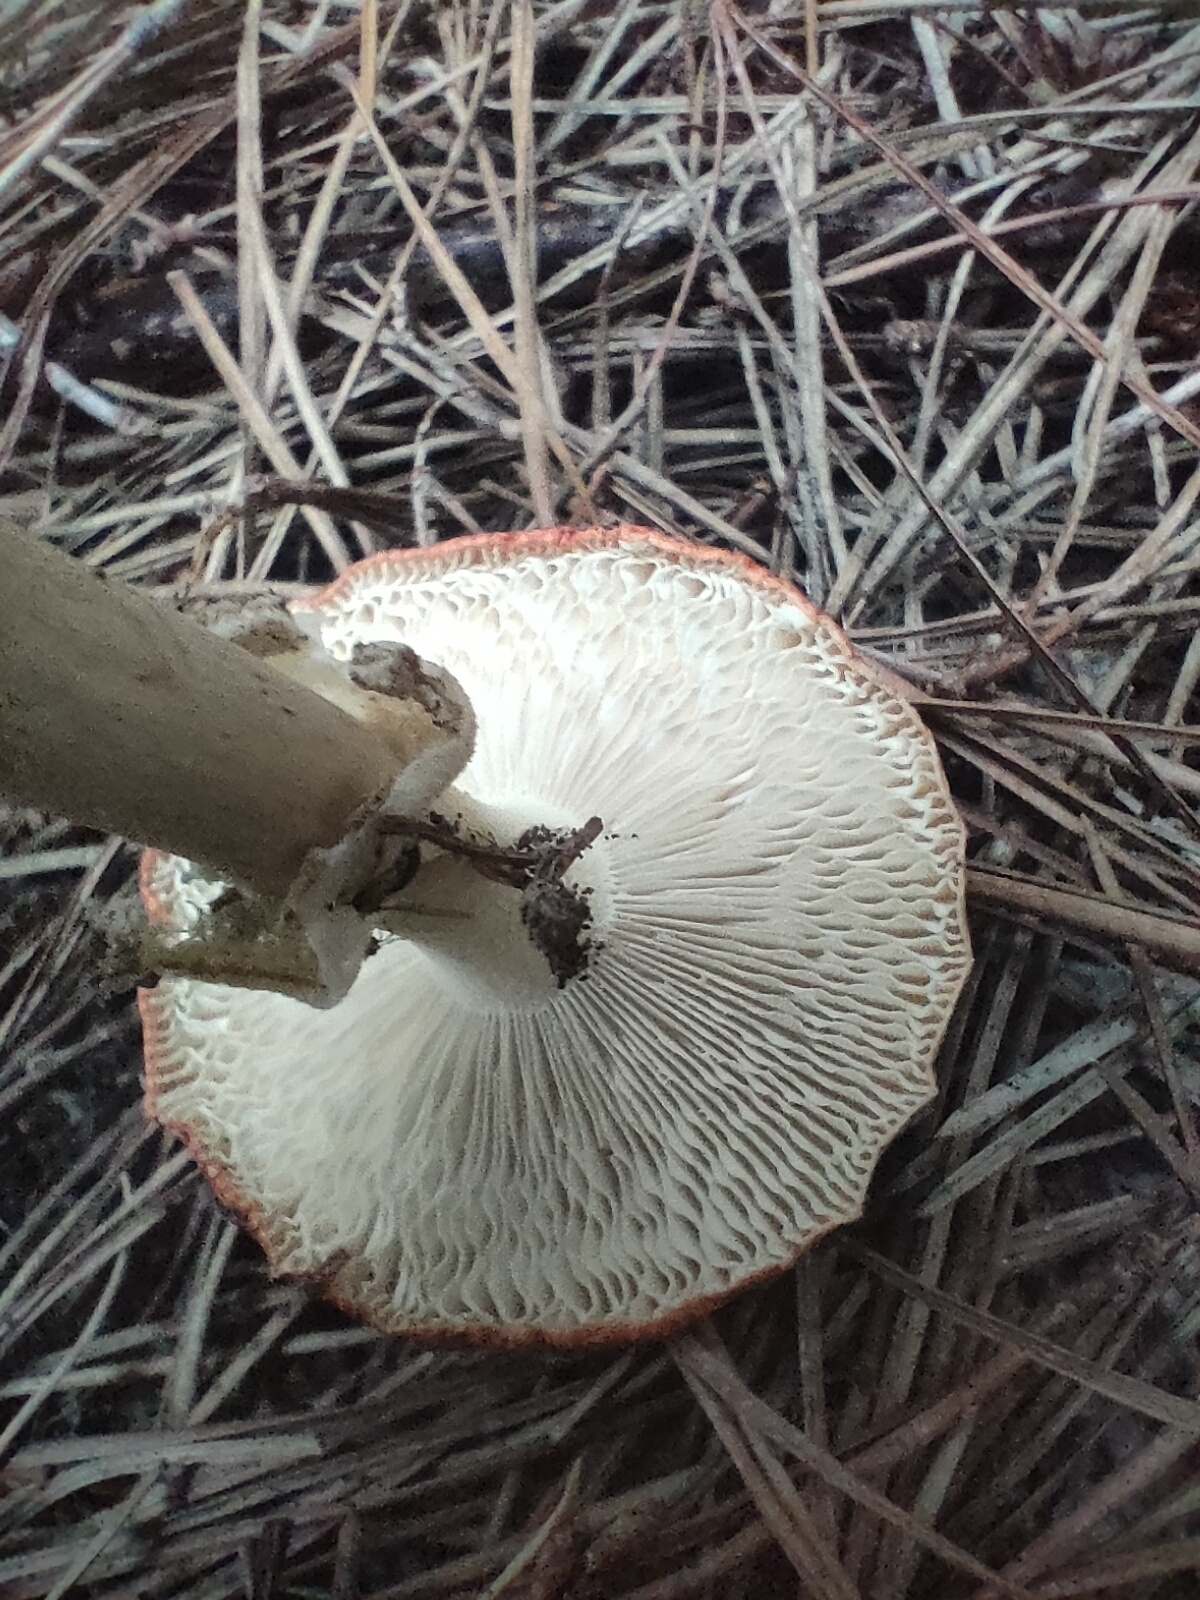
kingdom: Fungi
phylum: Basidiomycota
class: Agaricomycetes
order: Agaricales
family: Amanitaceae
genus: Amanita
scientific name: Amanita muscaria
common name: Fly agaric
